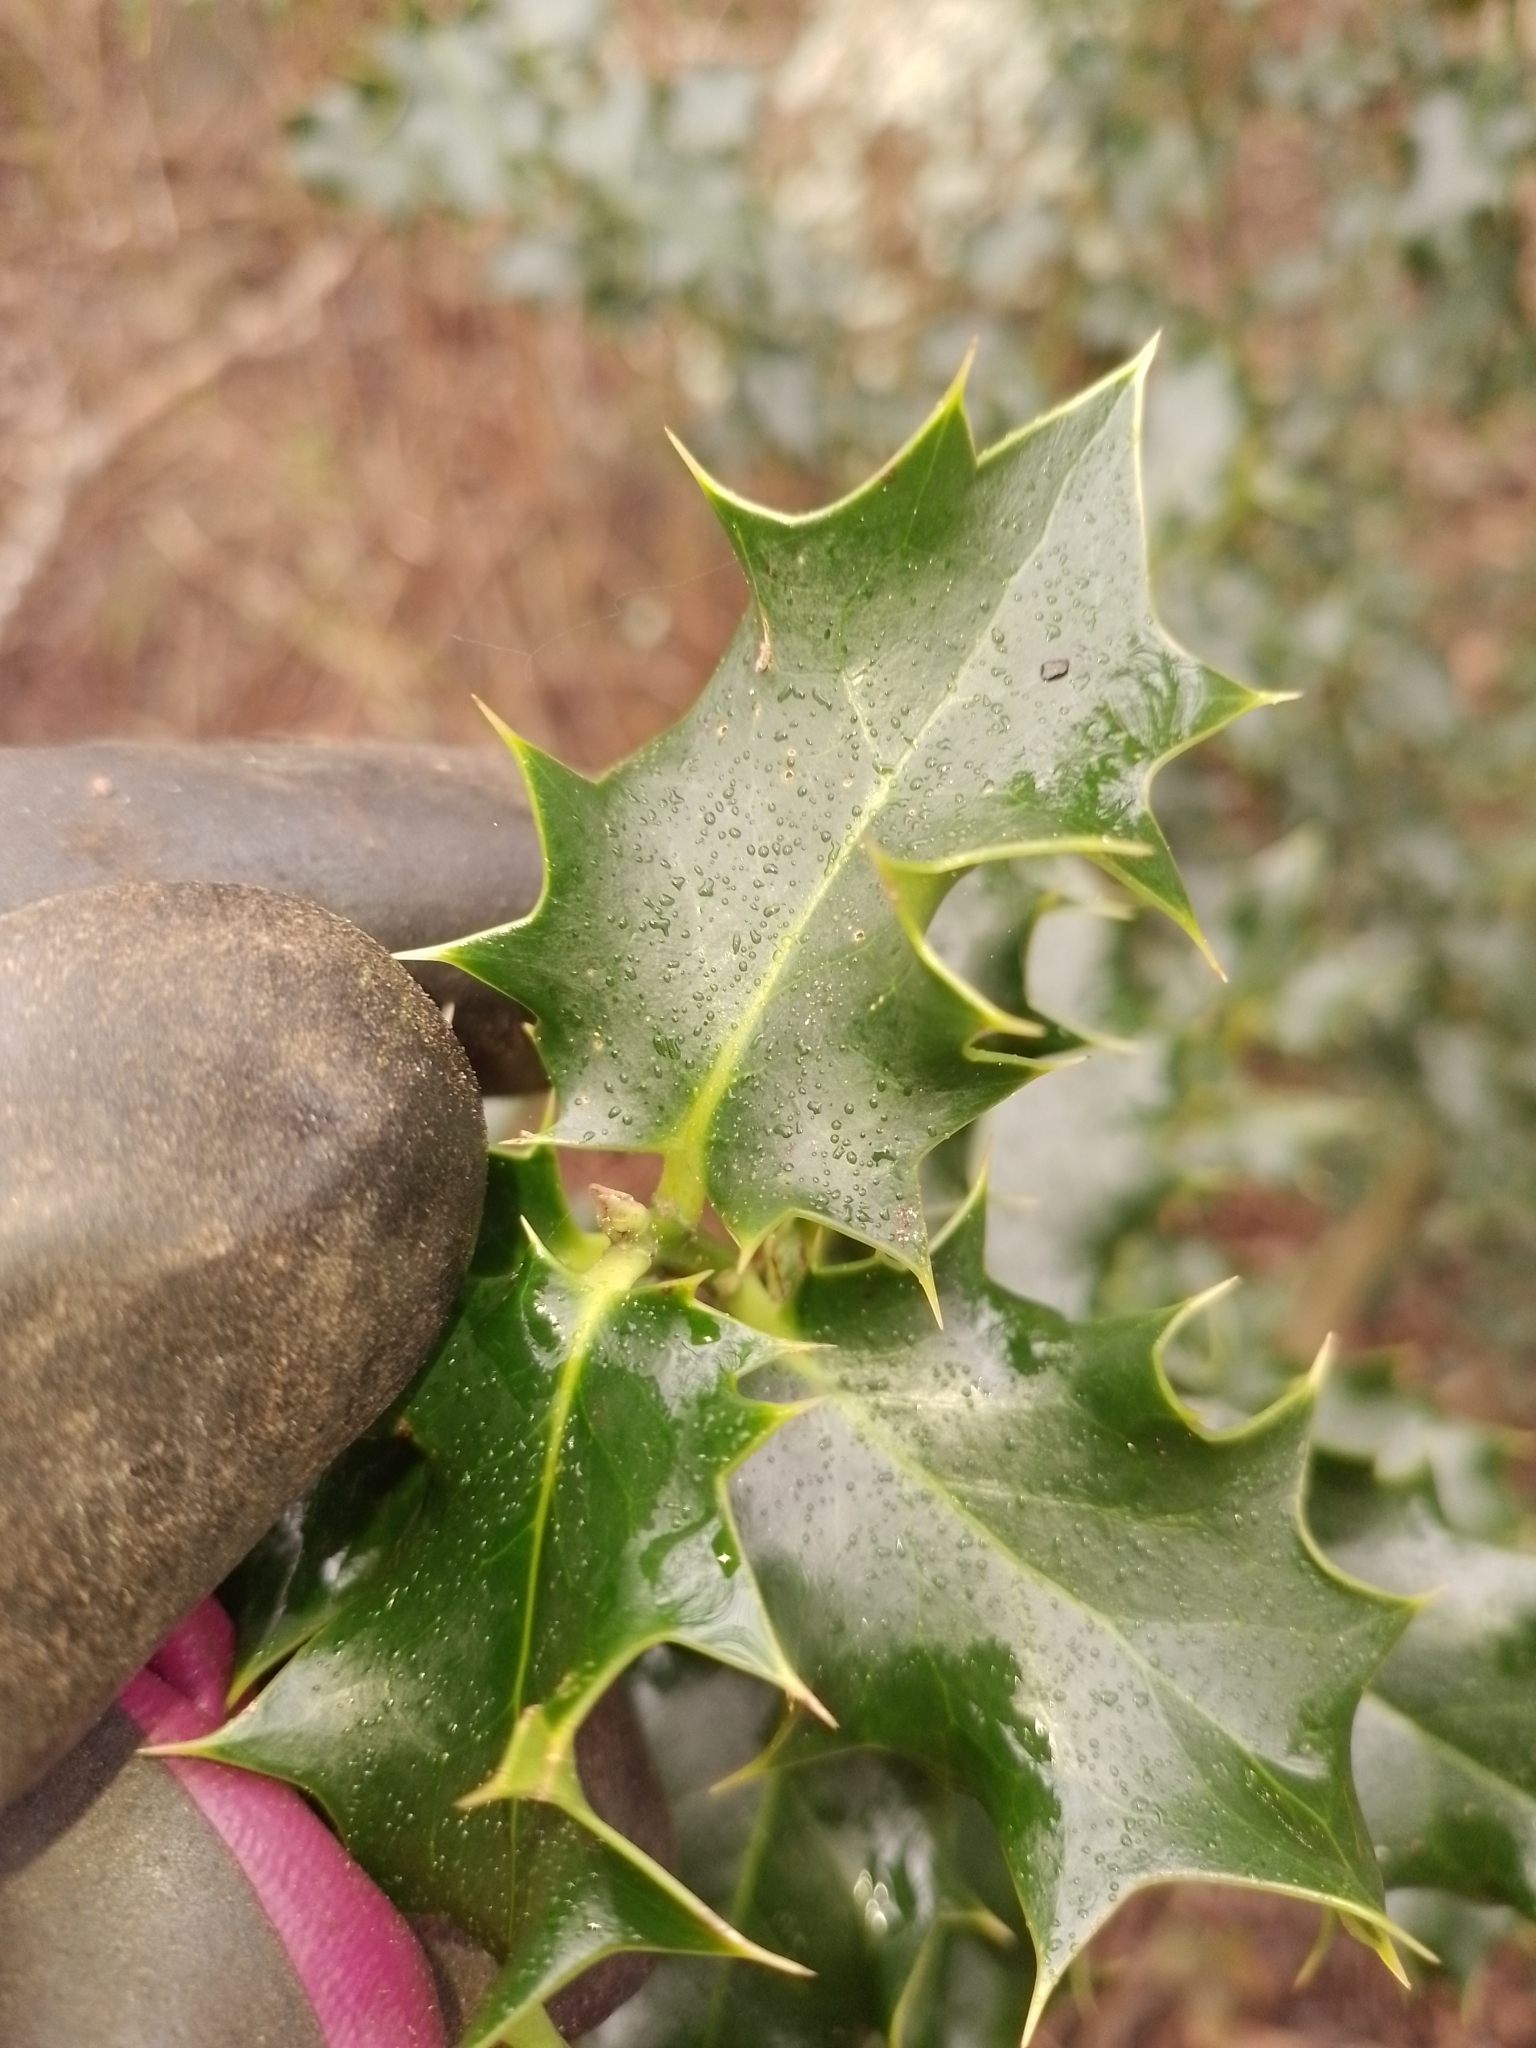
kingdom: Plantae
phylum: Tracheophyta
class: Magnoliopsida
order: Aquifoliales
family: Aquifoliaceae
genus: Ilex
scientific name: Ilex aquifolium
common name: English holly
